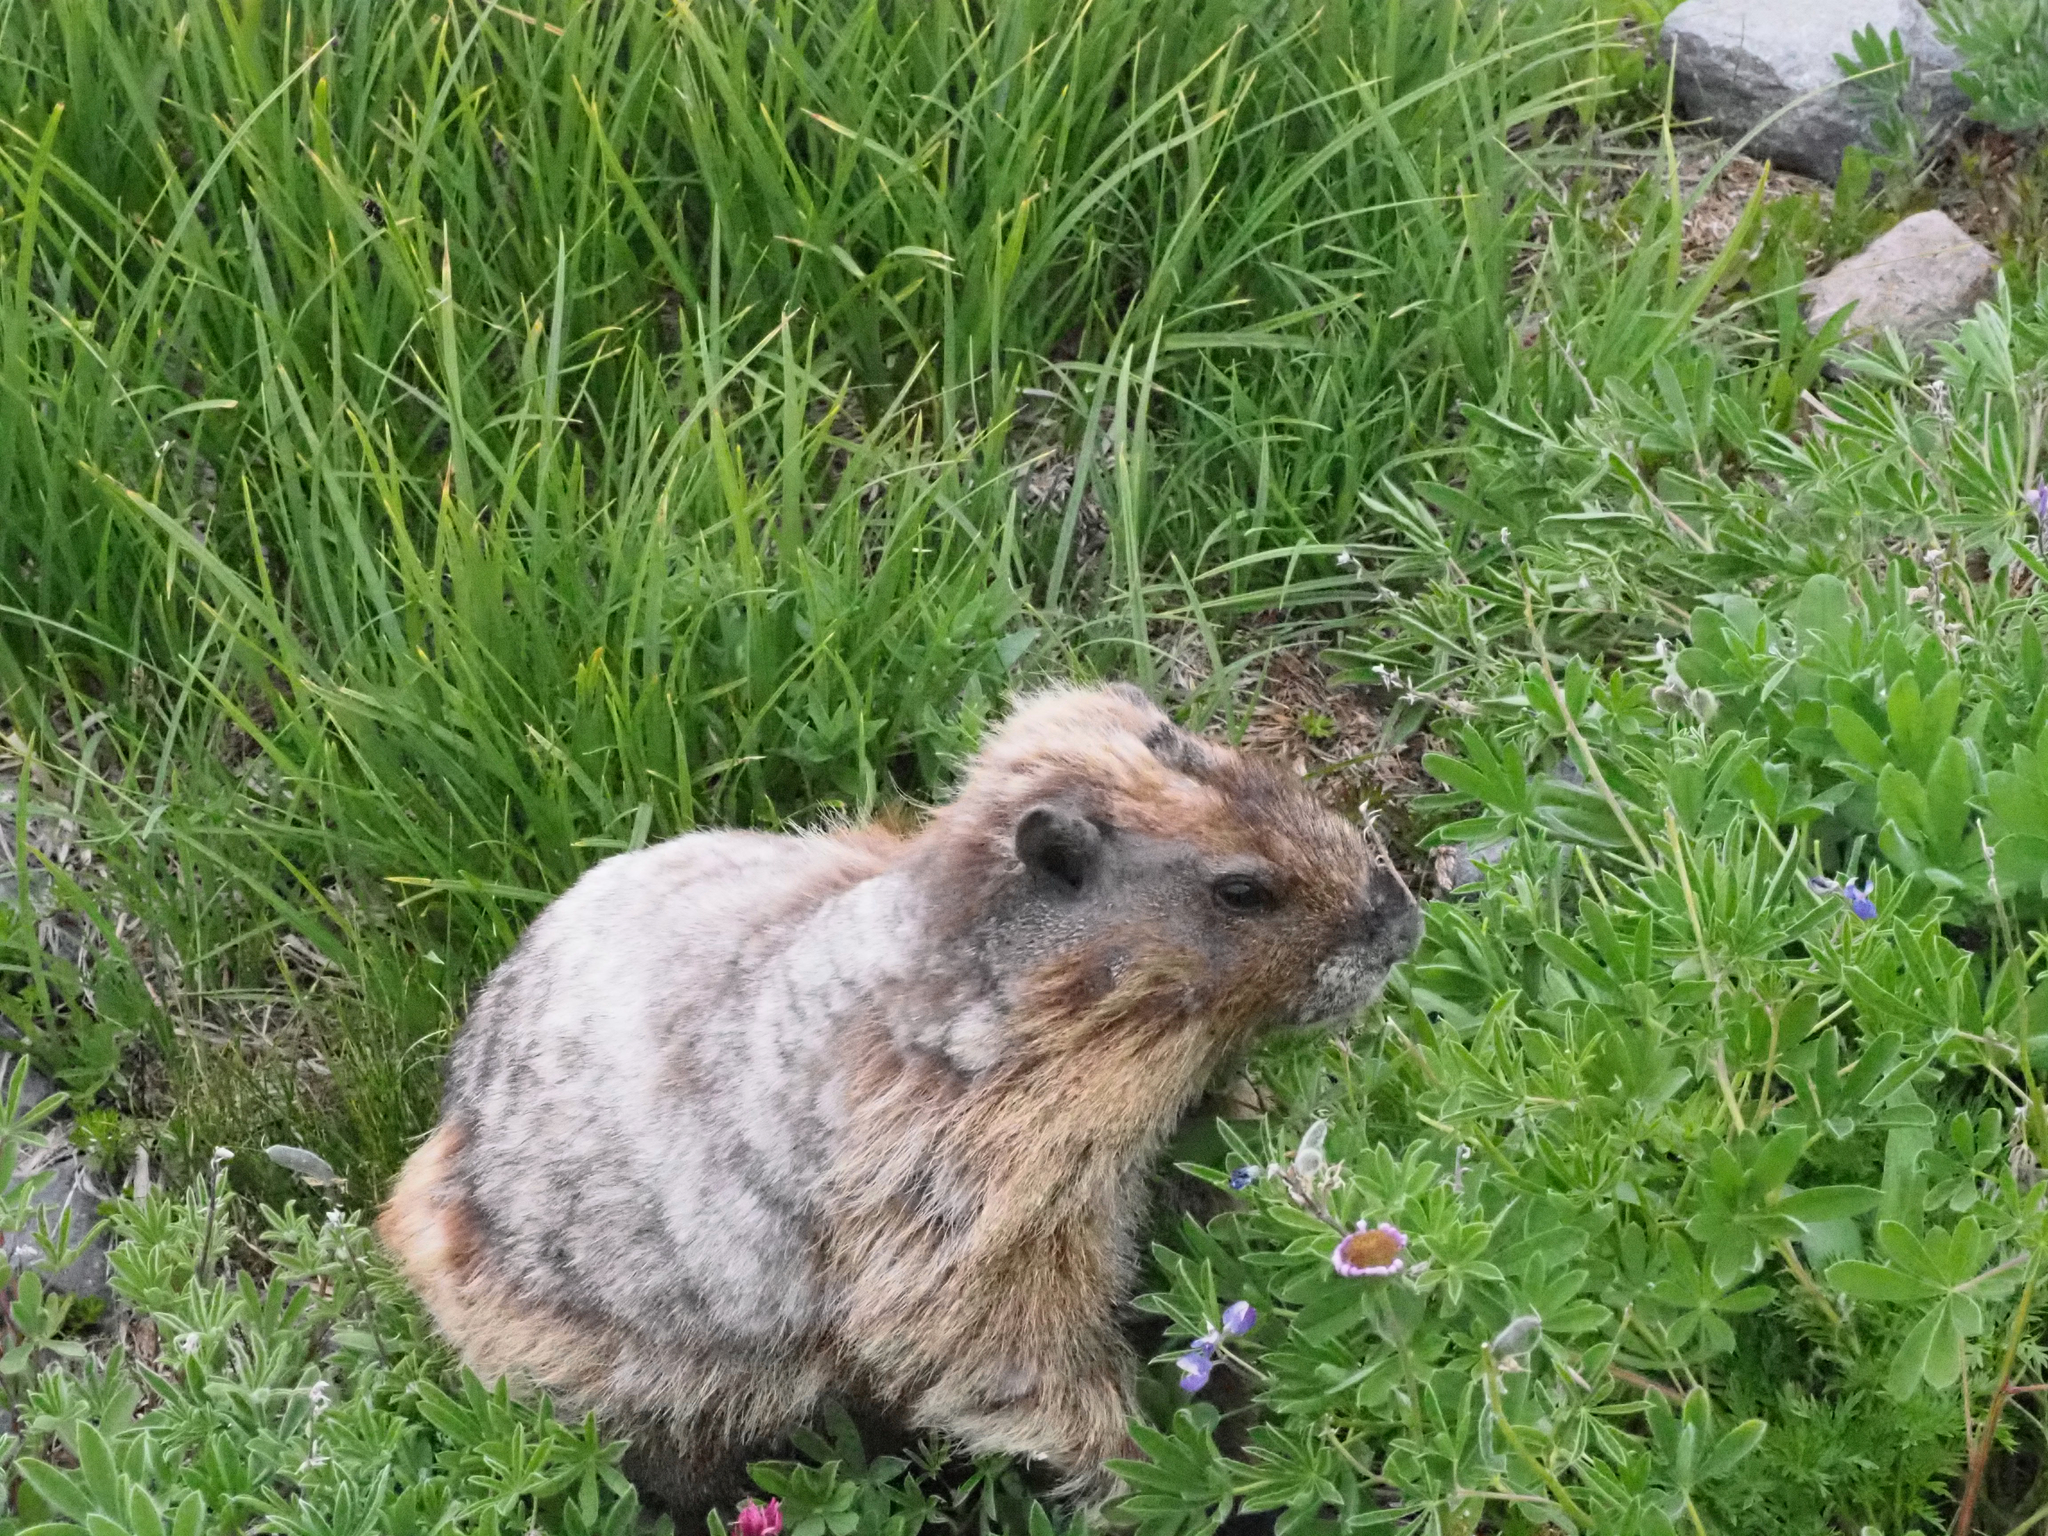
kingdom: Animalia
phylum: Chordata
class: Mammalia
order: Rodentia
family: Sciuridae
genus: Marmota
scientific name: Marmota caligata
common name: Hoary marmot
